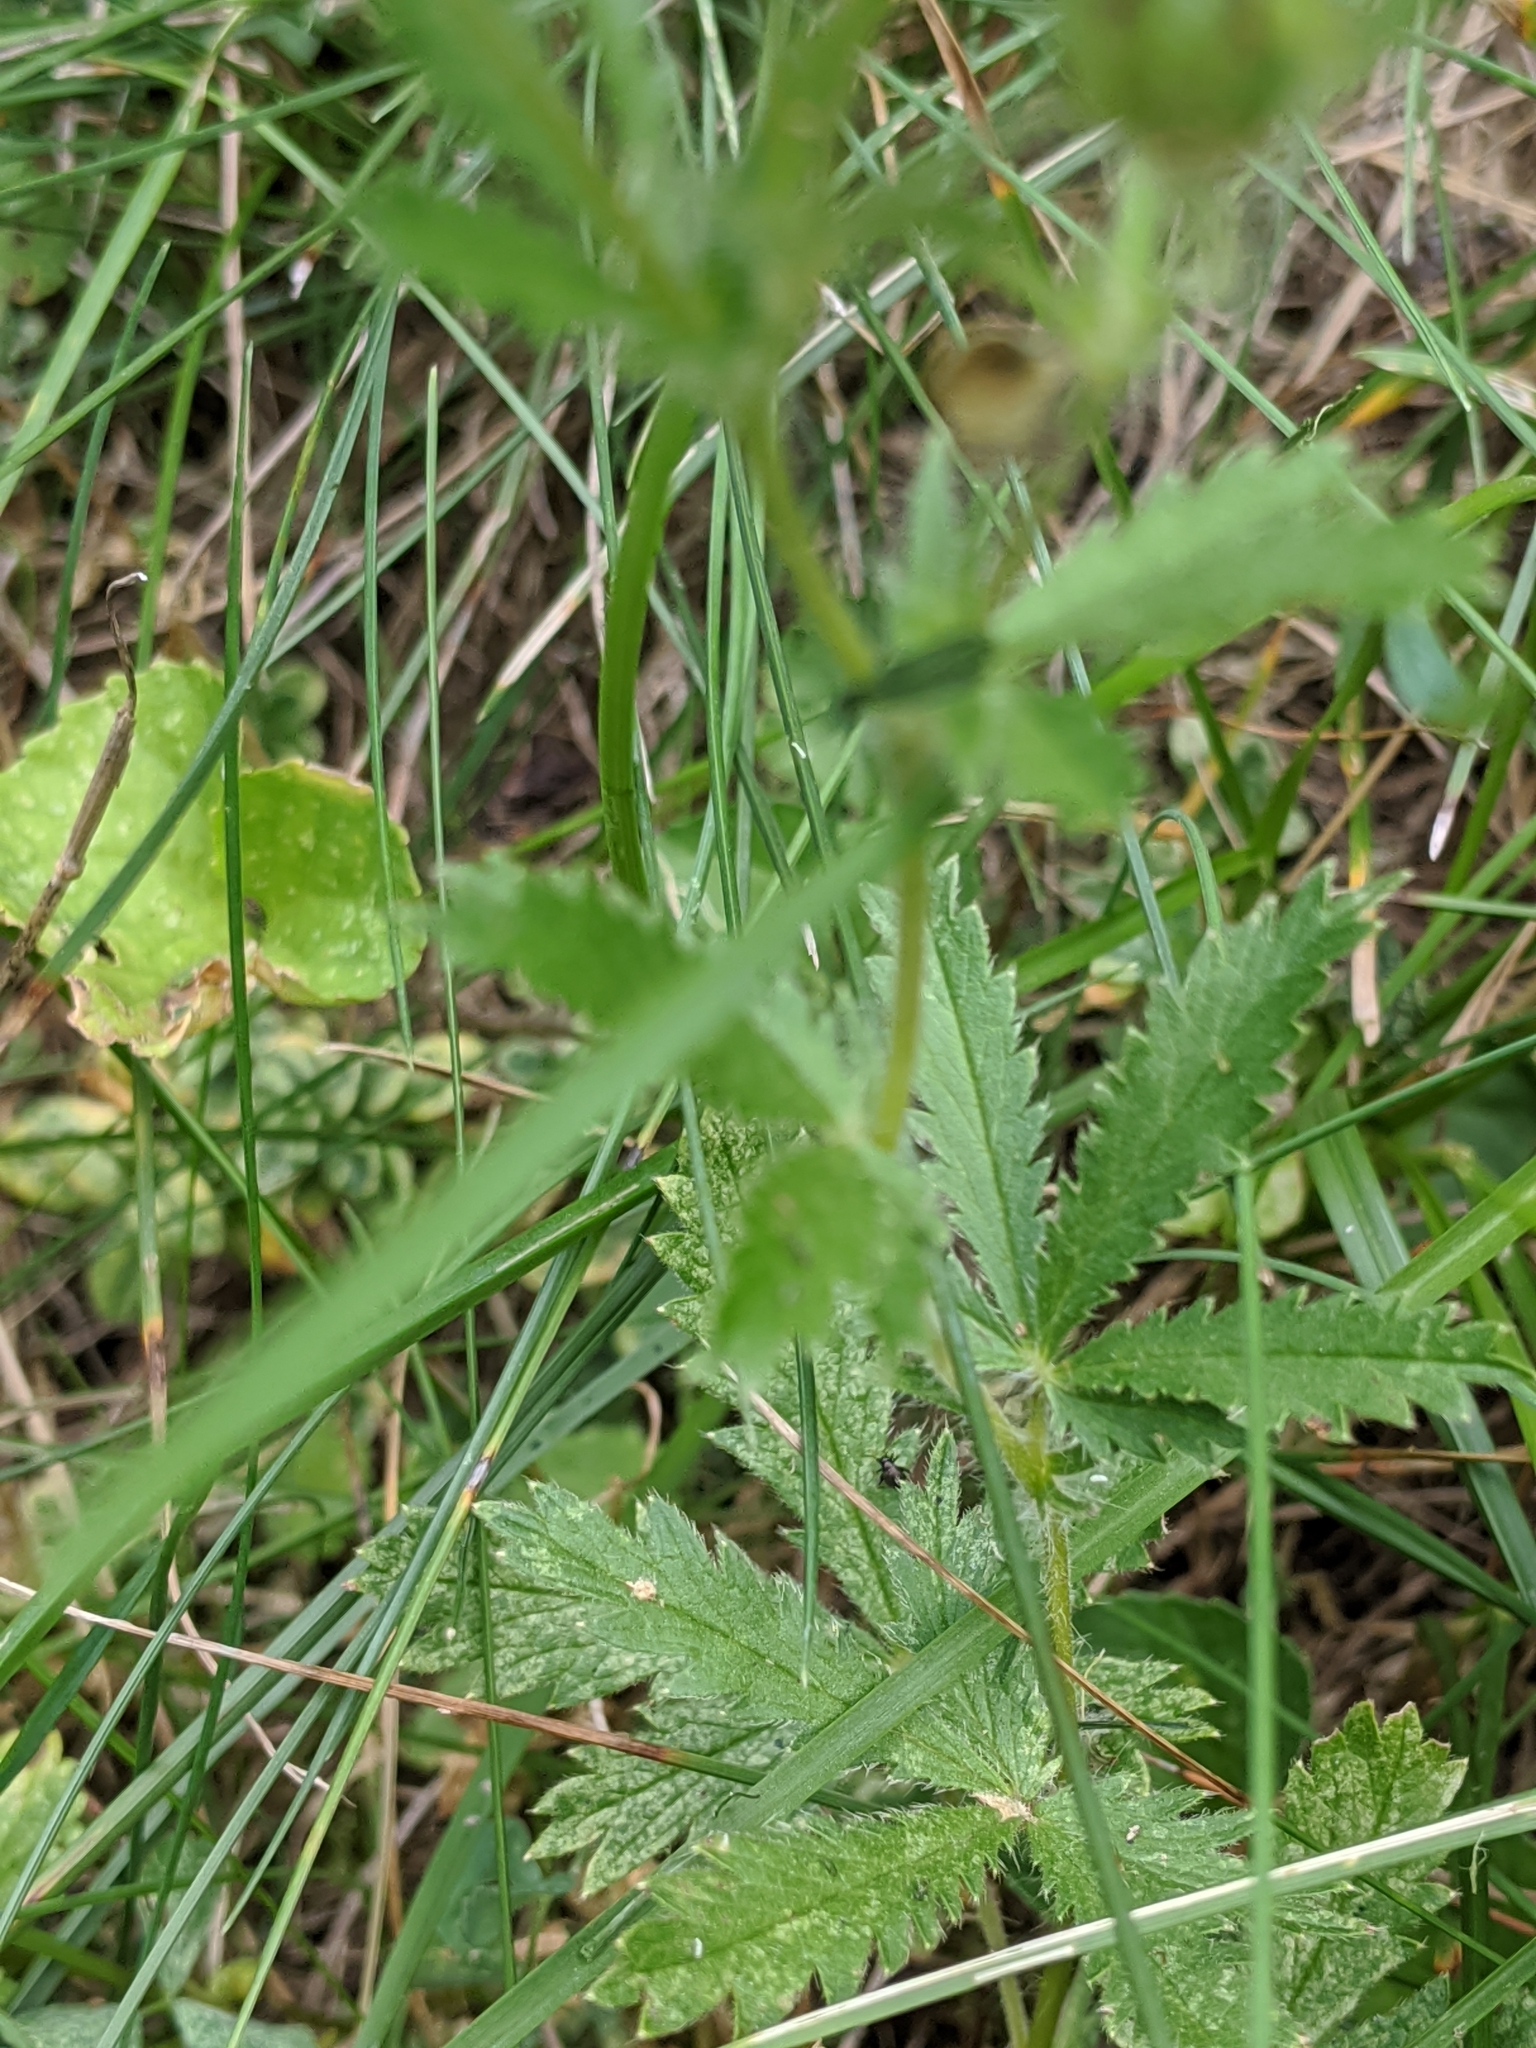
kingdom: Plantae
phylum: Tracheophyta
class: Magnoliopsida
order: Rosales
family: Rosaceae
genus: Potentilla
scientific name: Potentilla recta
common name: Sulphur cinquefoil
